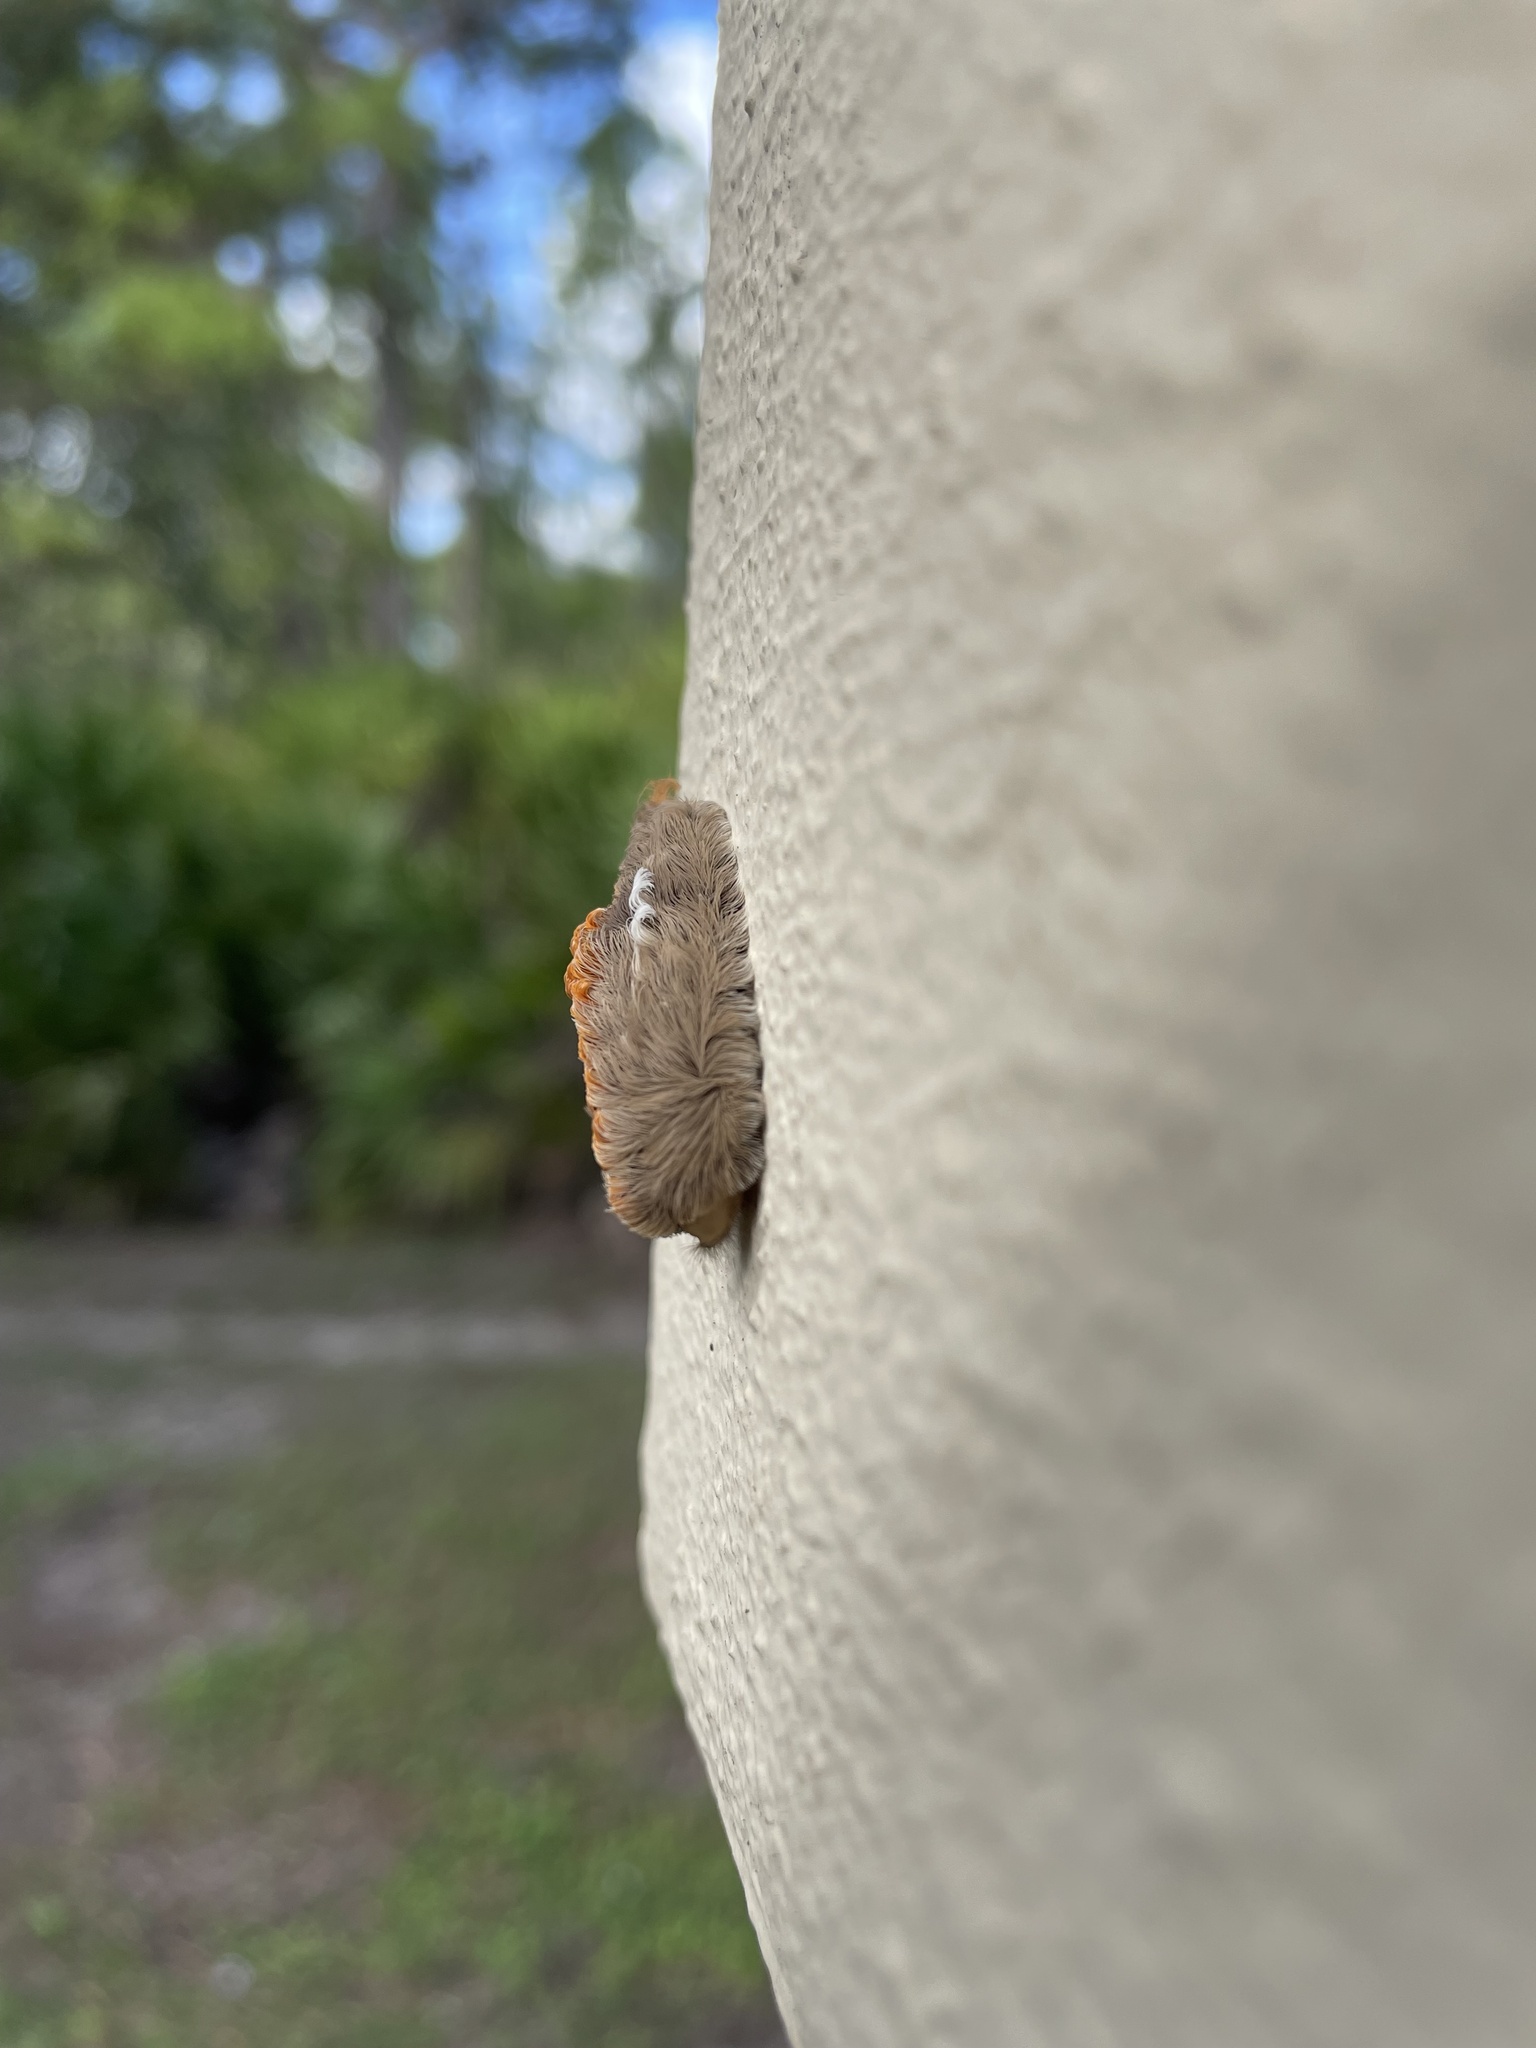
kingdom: Animalia
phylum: Arthropoda
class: Insecta
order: Lepidoptera
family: Megalopygidae
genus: Megalopyge
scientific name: Megalopyge opercularis
